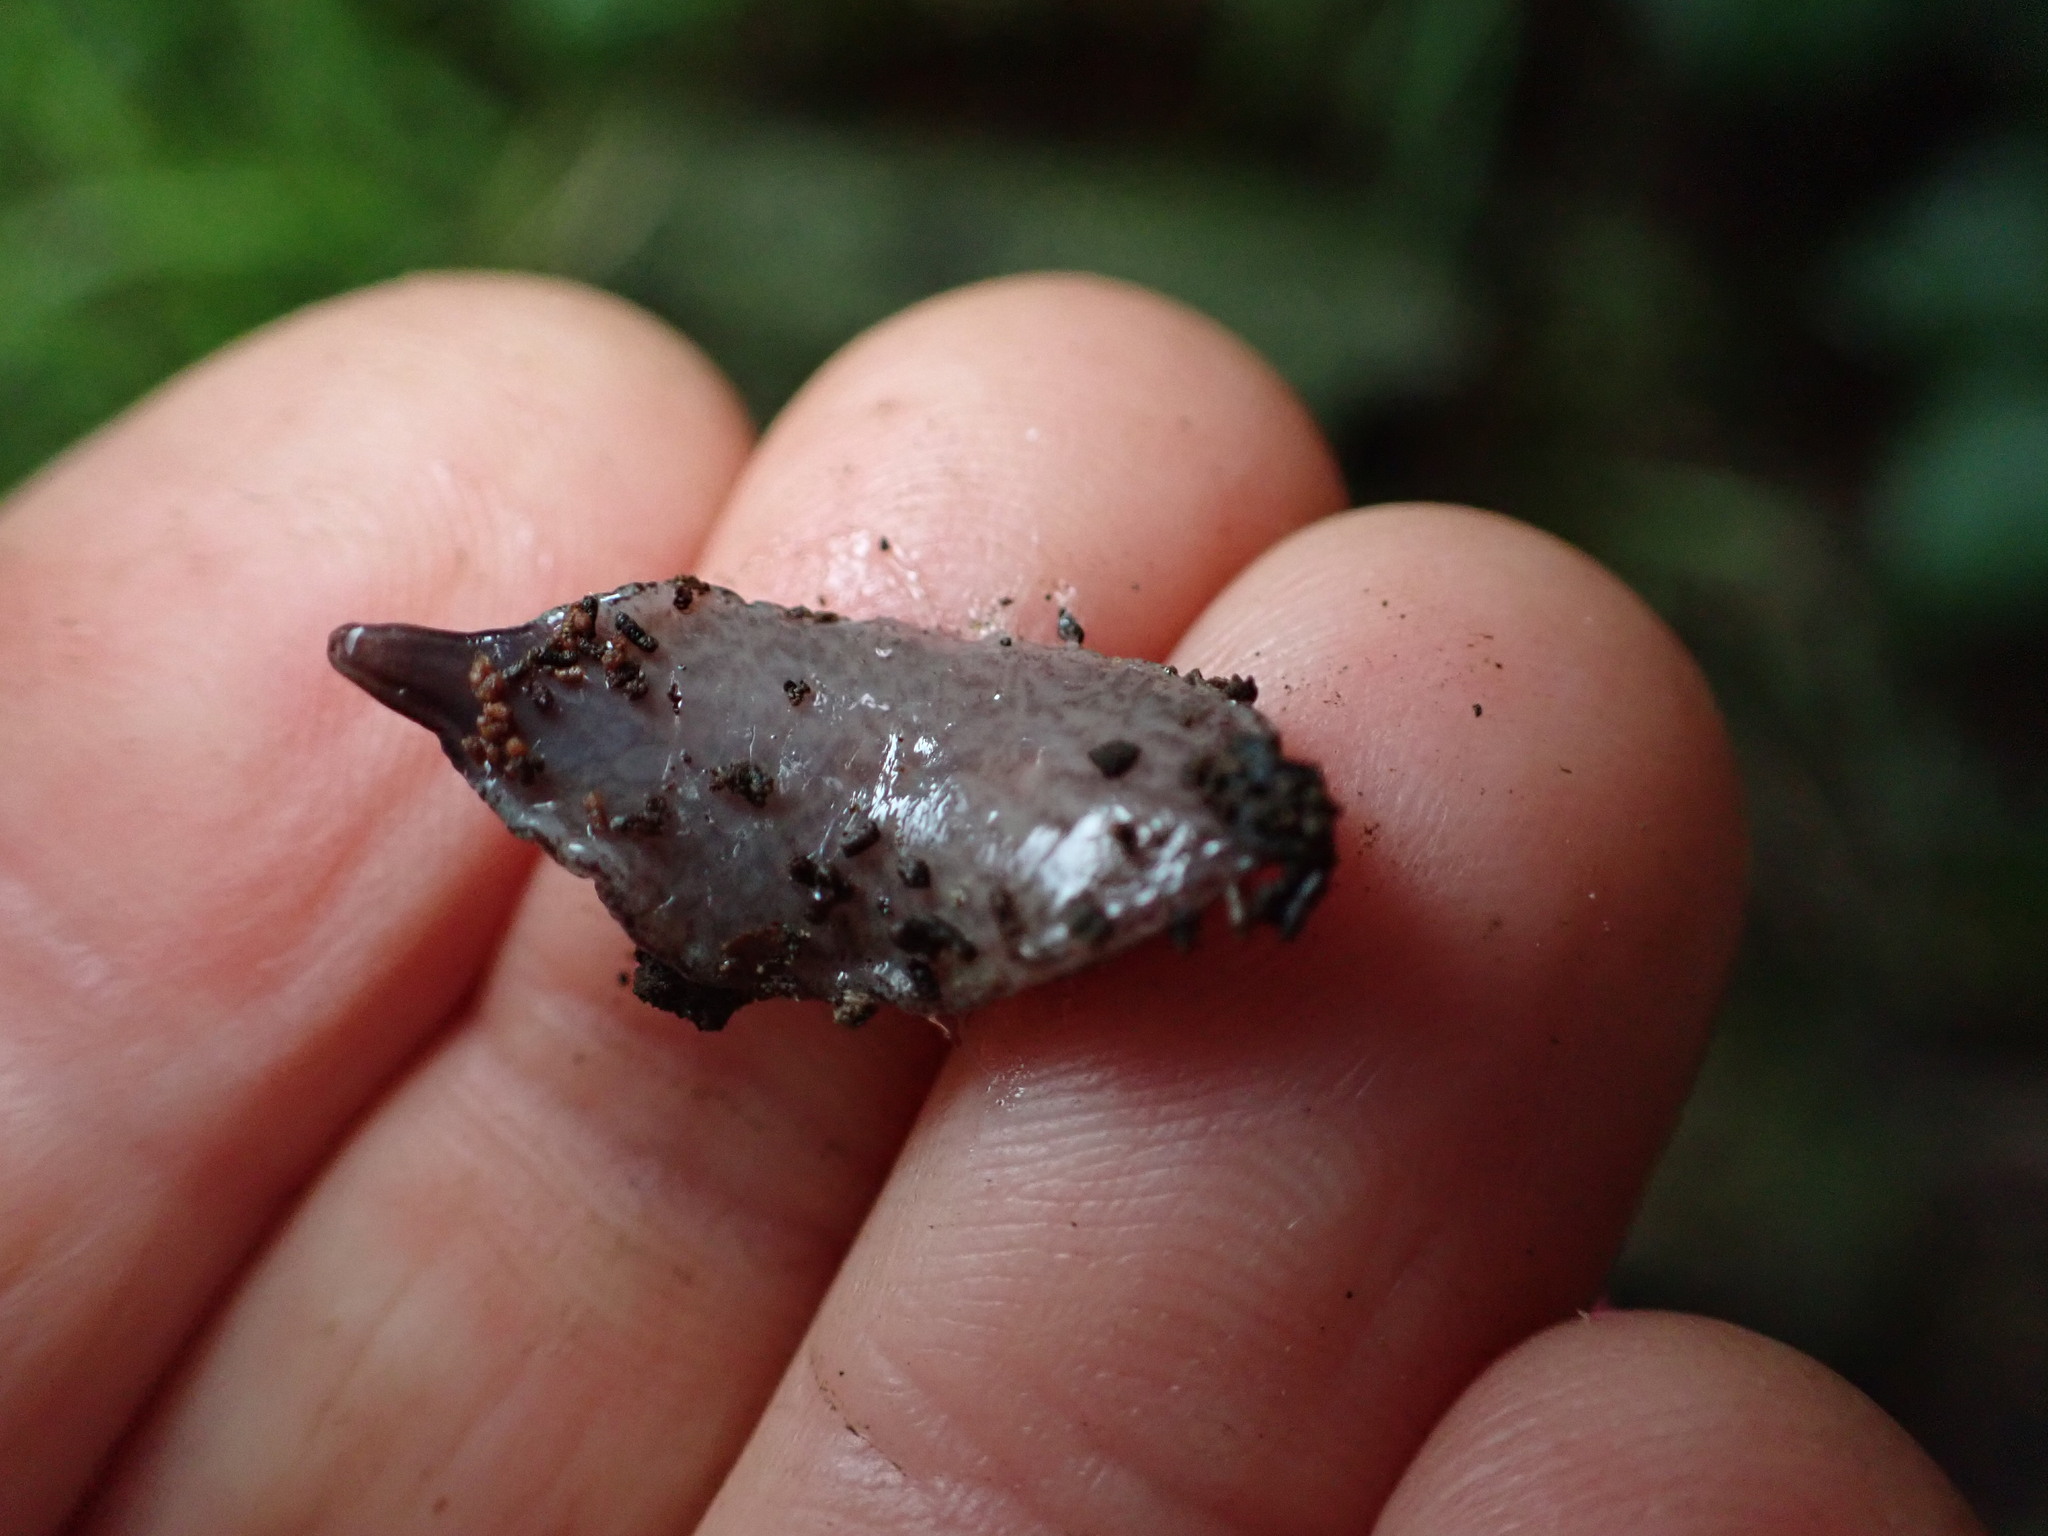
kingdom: Animalia
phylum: Platyhelminthes
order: Tricladida
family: Geoplanidae
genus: Australopacifica
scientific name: Australopacifica hamiltoni
